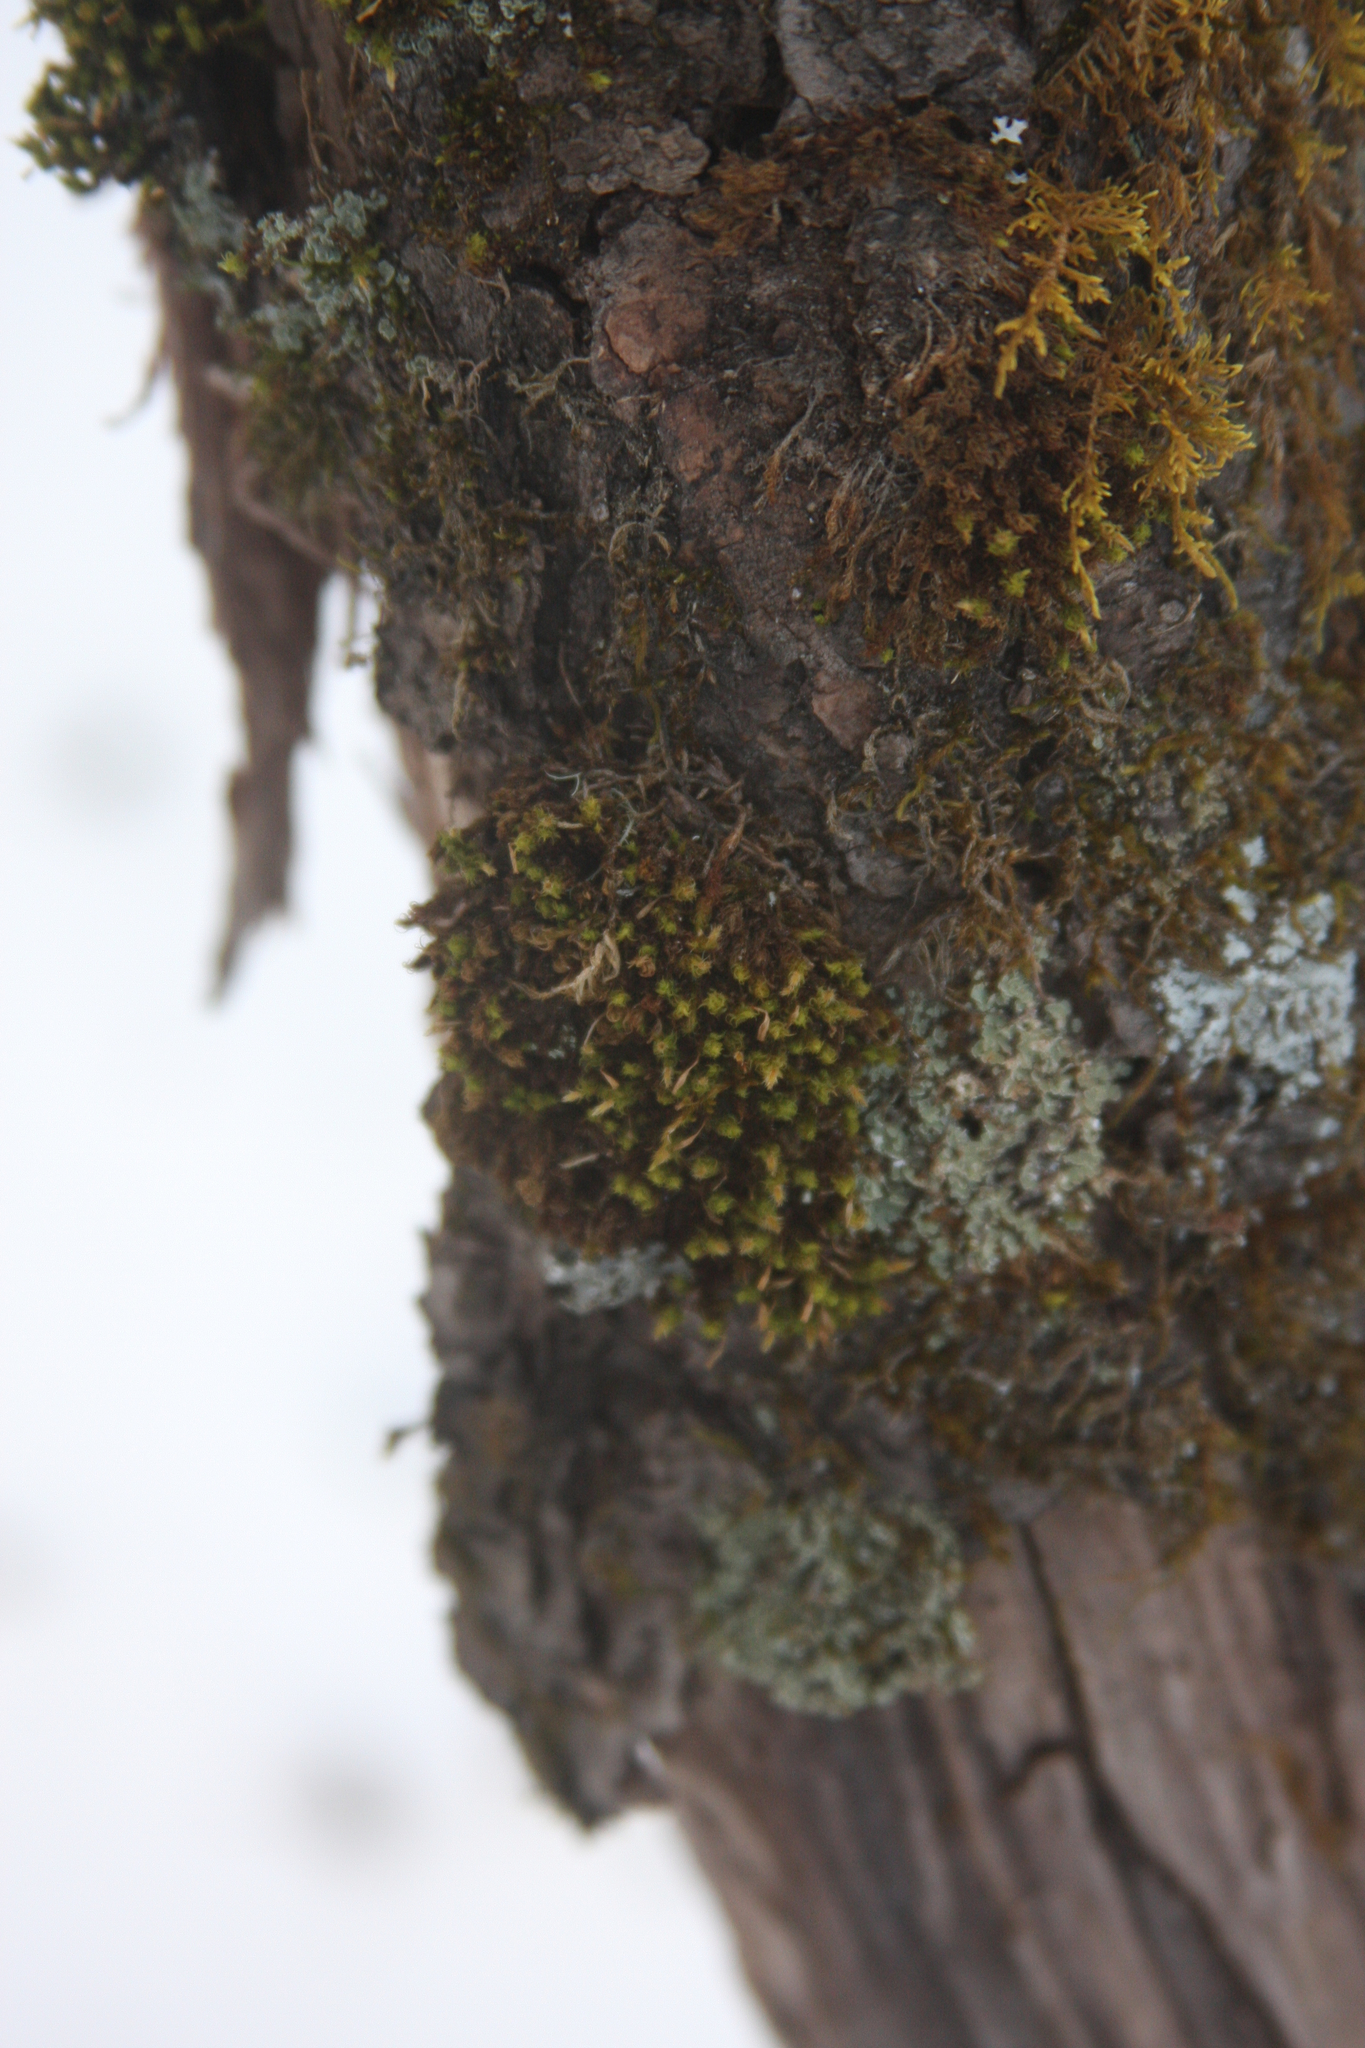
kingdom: Plantae
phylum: Bryophyta
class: Bryopsida
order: Orthotrichales
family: Orthotrichaceae
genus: Ulota
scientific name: Ulota crispa
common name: Crisped pincushion moss
